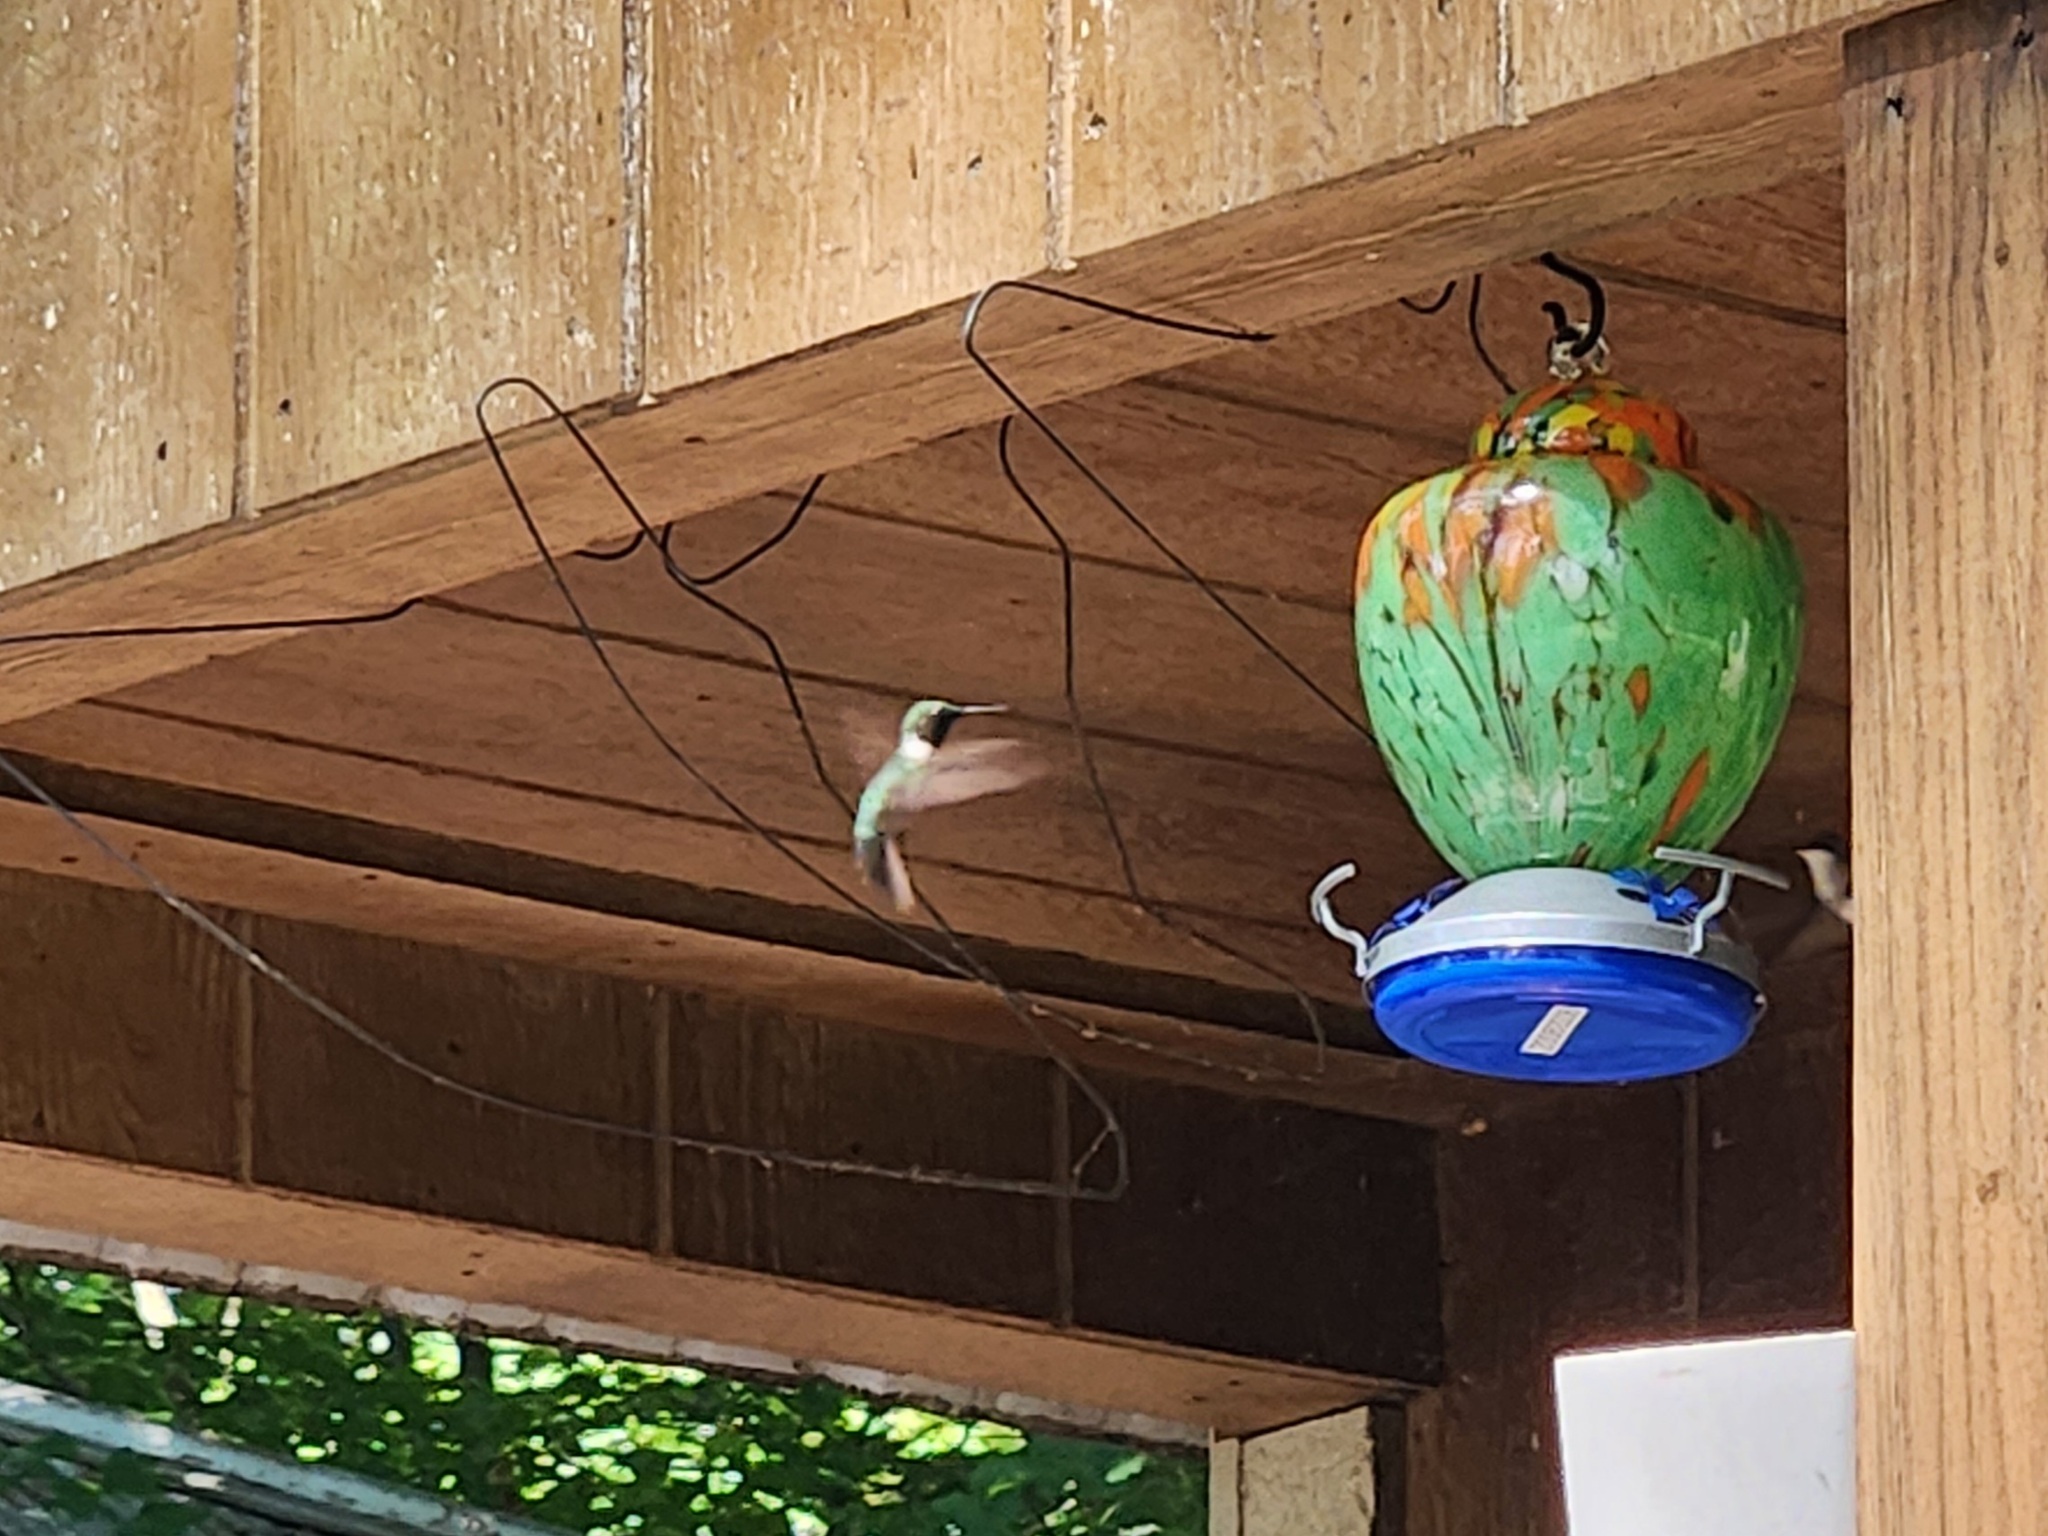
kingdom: Animalia
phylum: Chordata
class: Aves
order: Apodiformes
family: Trochilidae
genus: Archilochus
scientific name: Archilochus colubris
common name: Ruby-throated hummingbird
